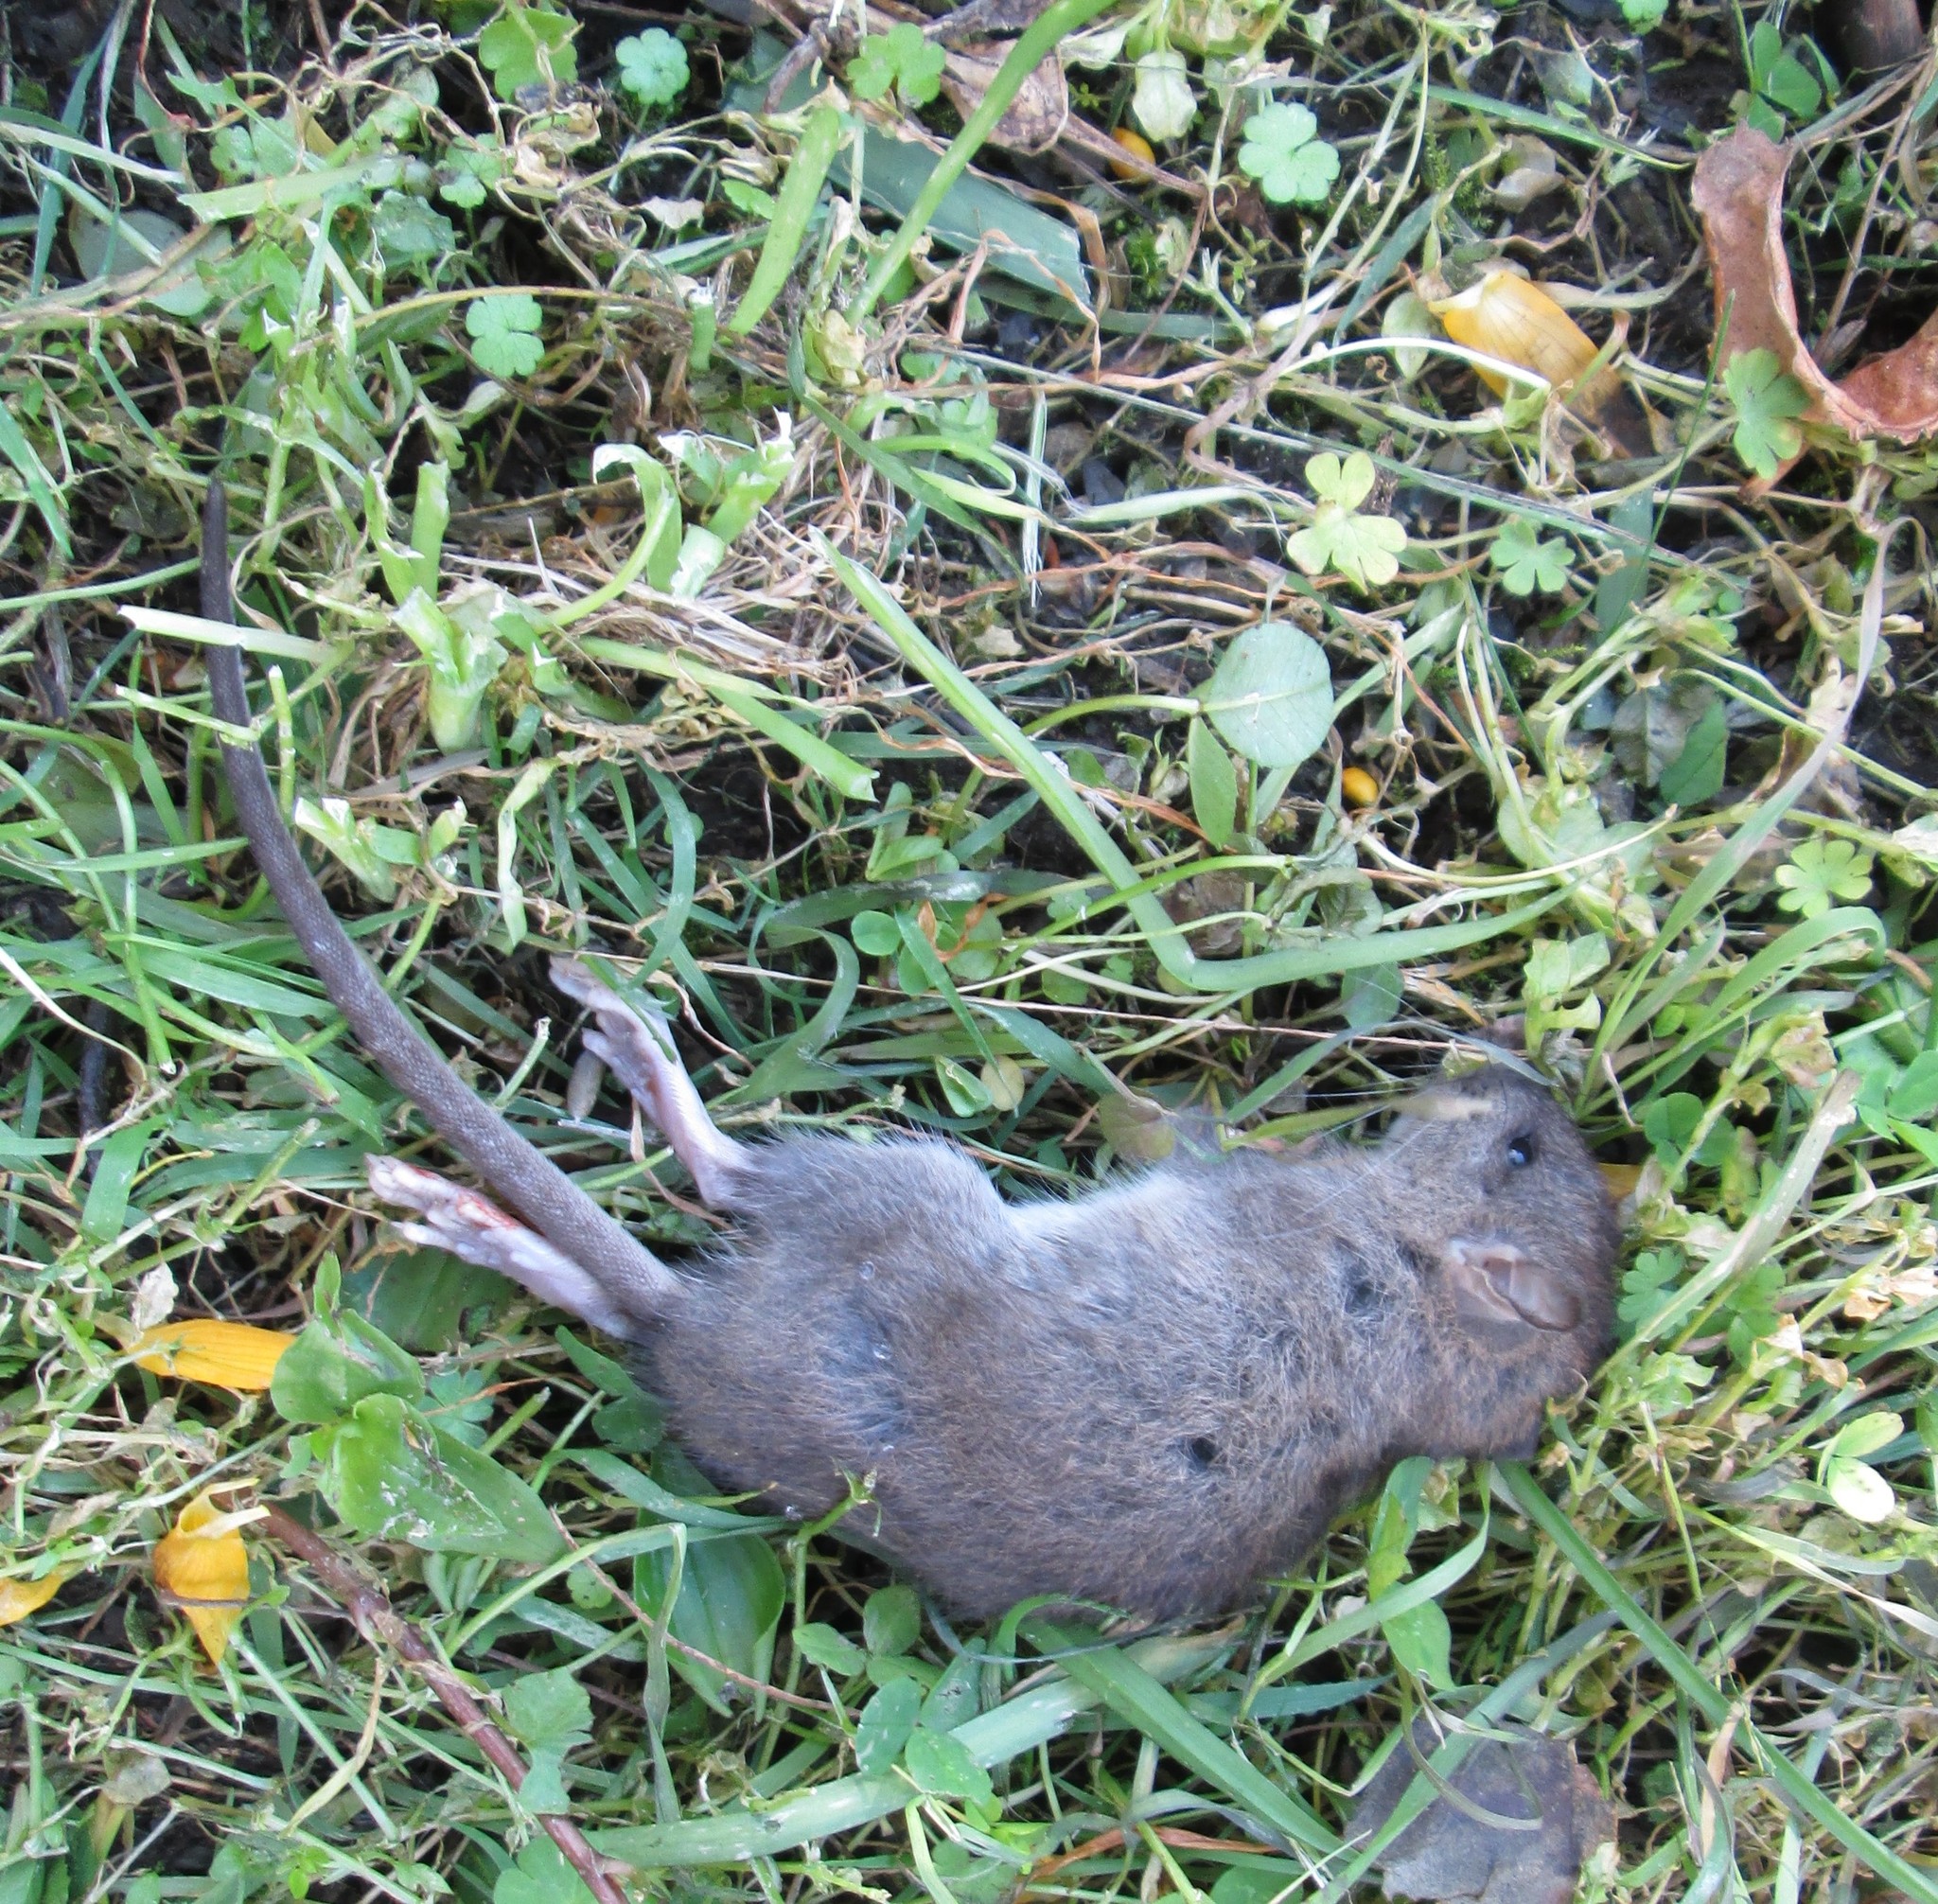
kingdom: Animalia
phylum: Chordata
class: Mammalia
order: Rodentia
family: Muridae
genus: Rattus
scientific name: Rattus norvegicus
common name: Brown rat
